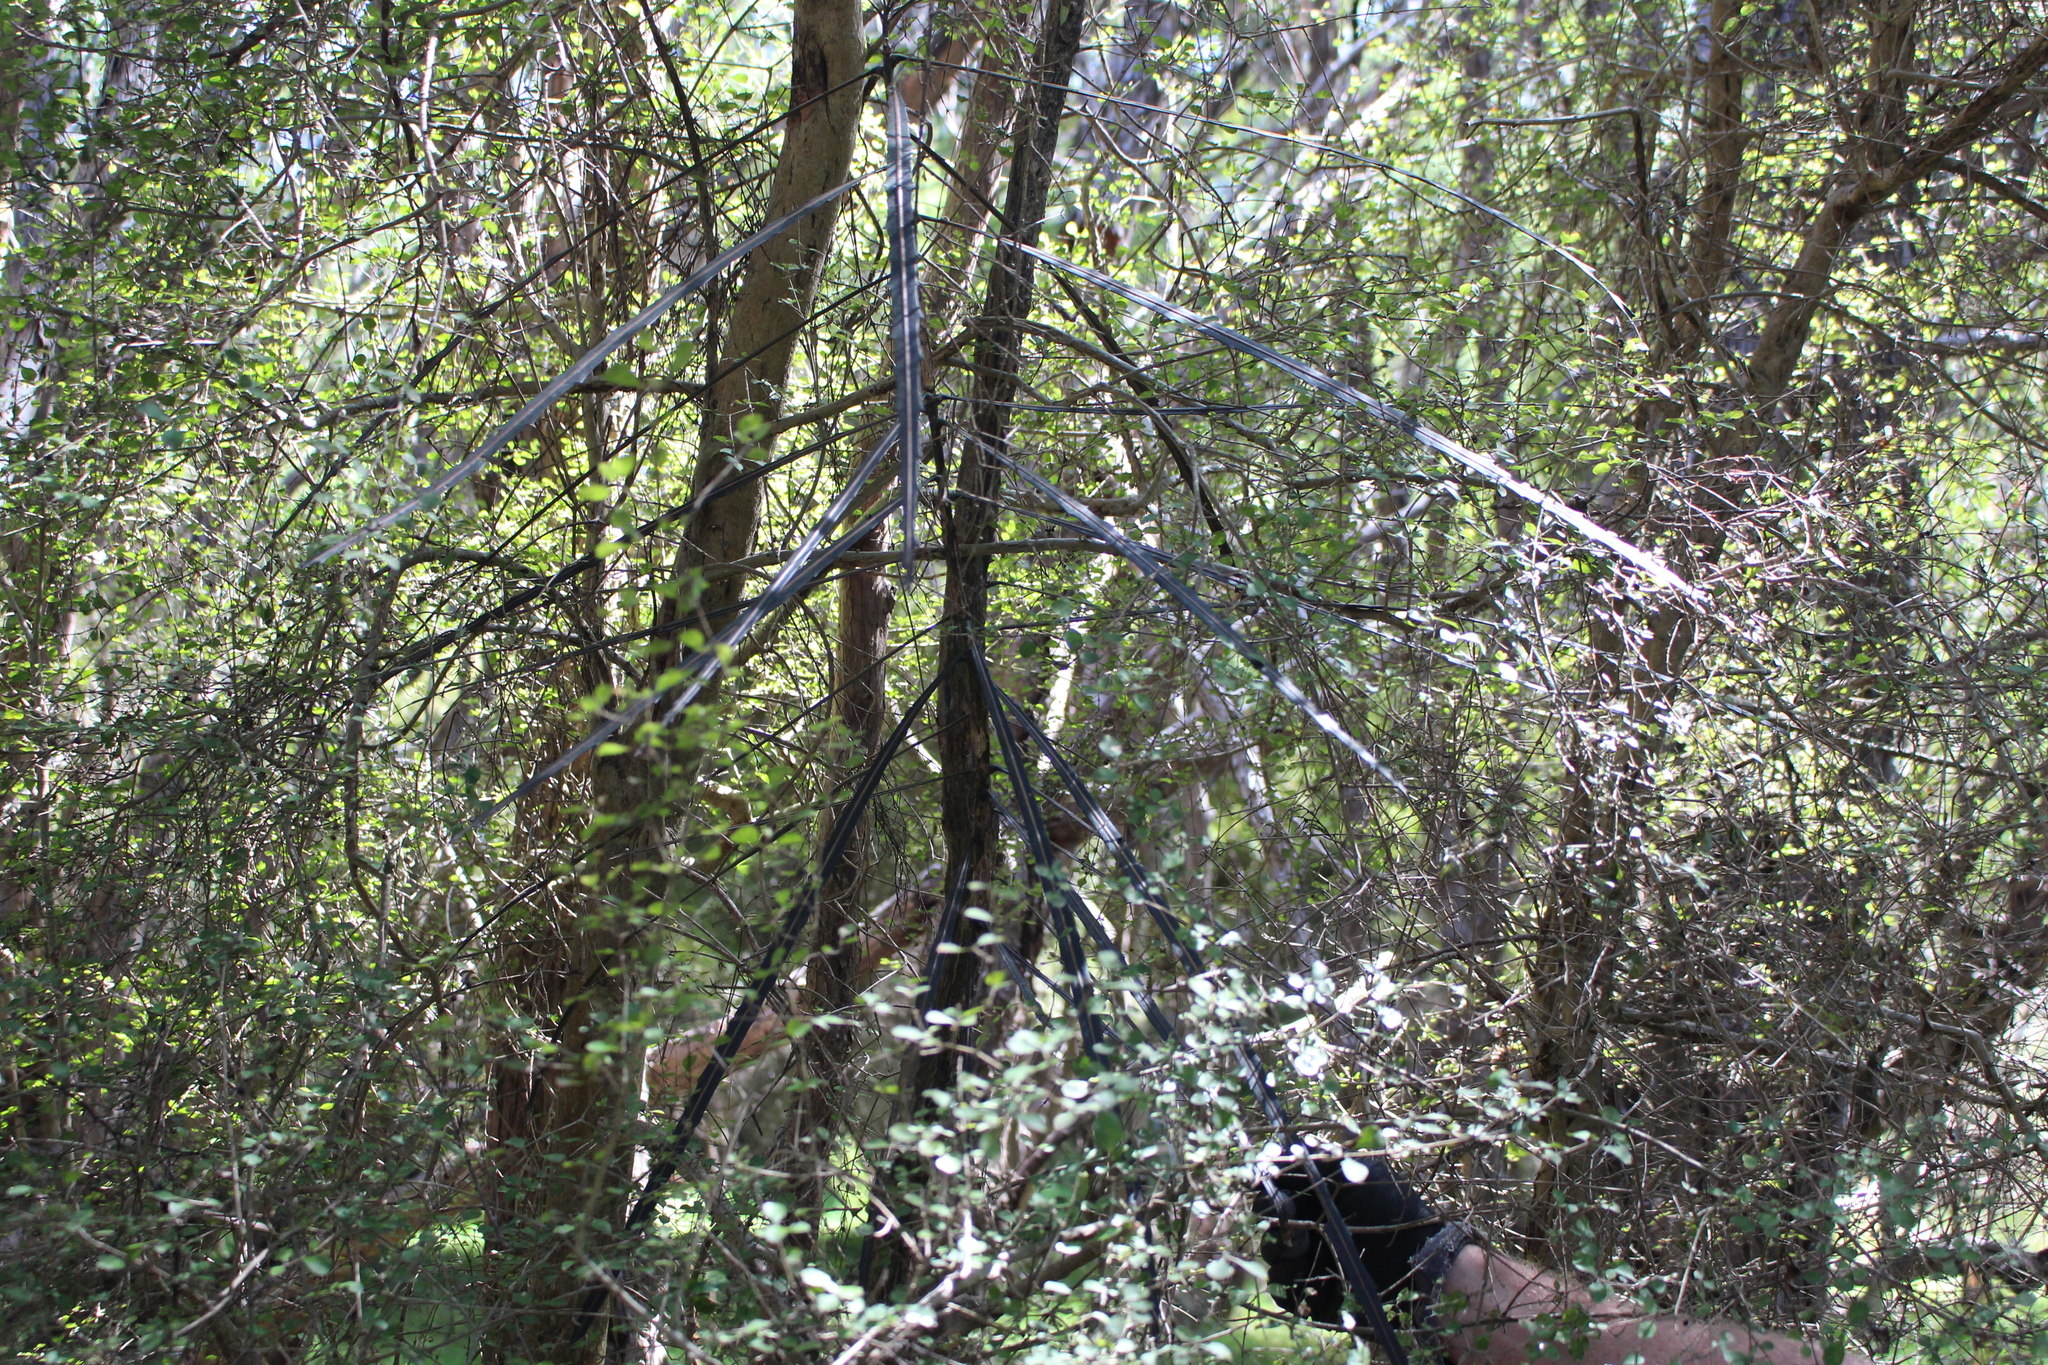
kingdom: Plantae
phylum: Tracheophyta
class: Magnoliopsida
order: Apiales
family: Araliaceae
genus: Pseudopanax
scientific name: Pseudopanax crassifolius
